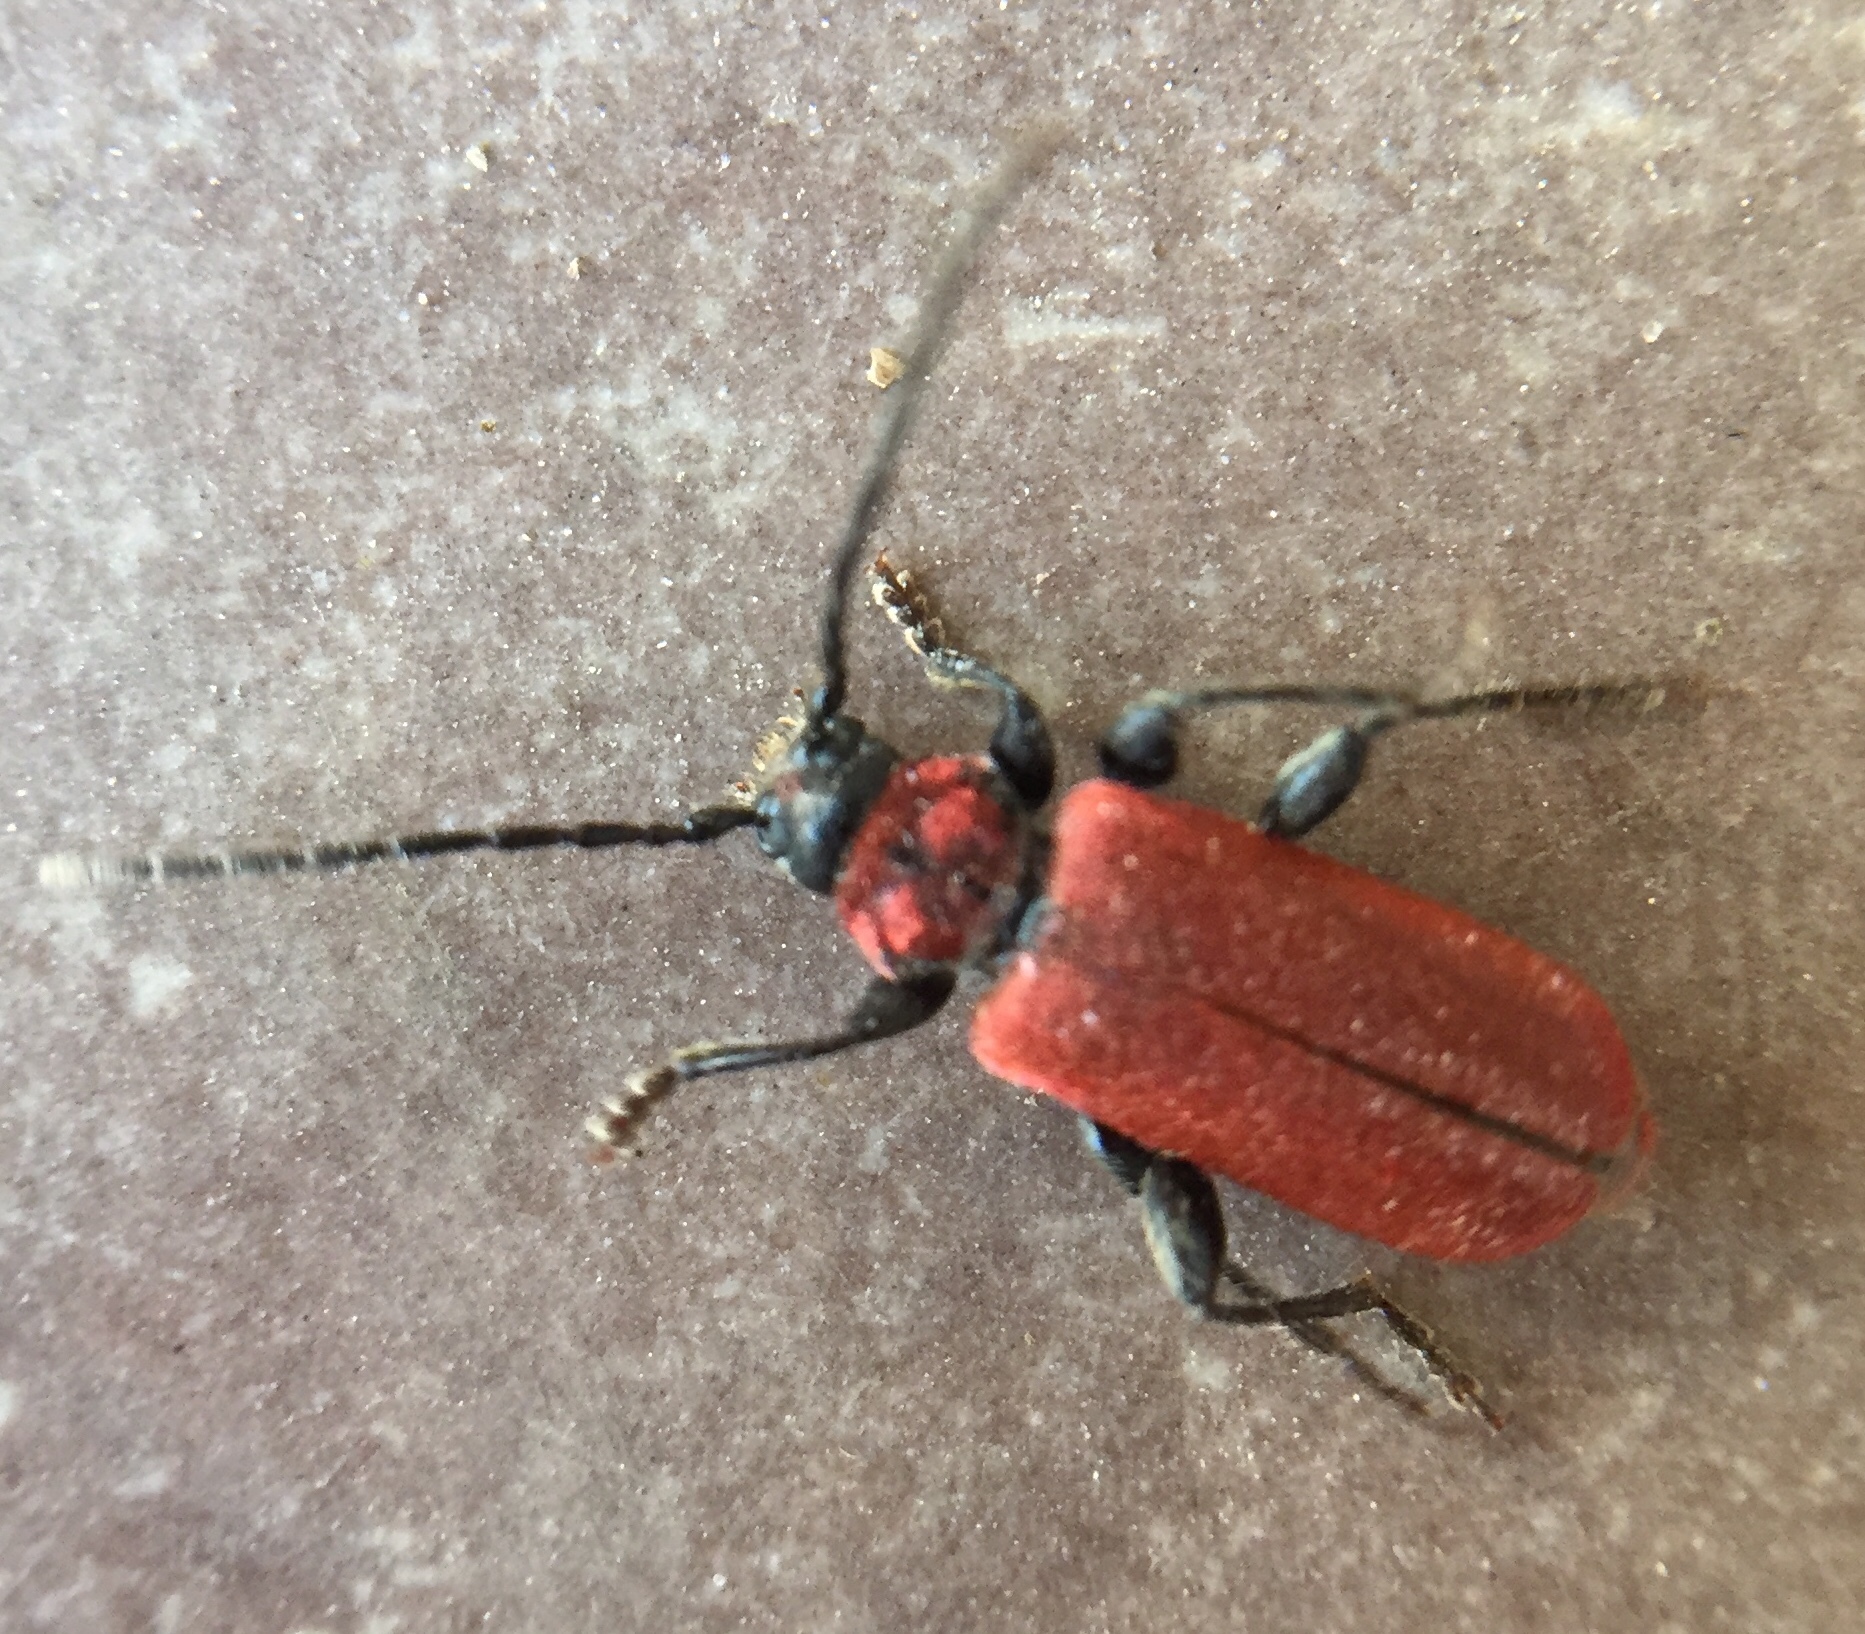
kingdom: Animalia
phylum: Arthropoda
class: Insecta
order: Coleoptera
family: Cerambycidae
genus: Pyrrhidium
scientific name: Pyrrhidium sanguineum
